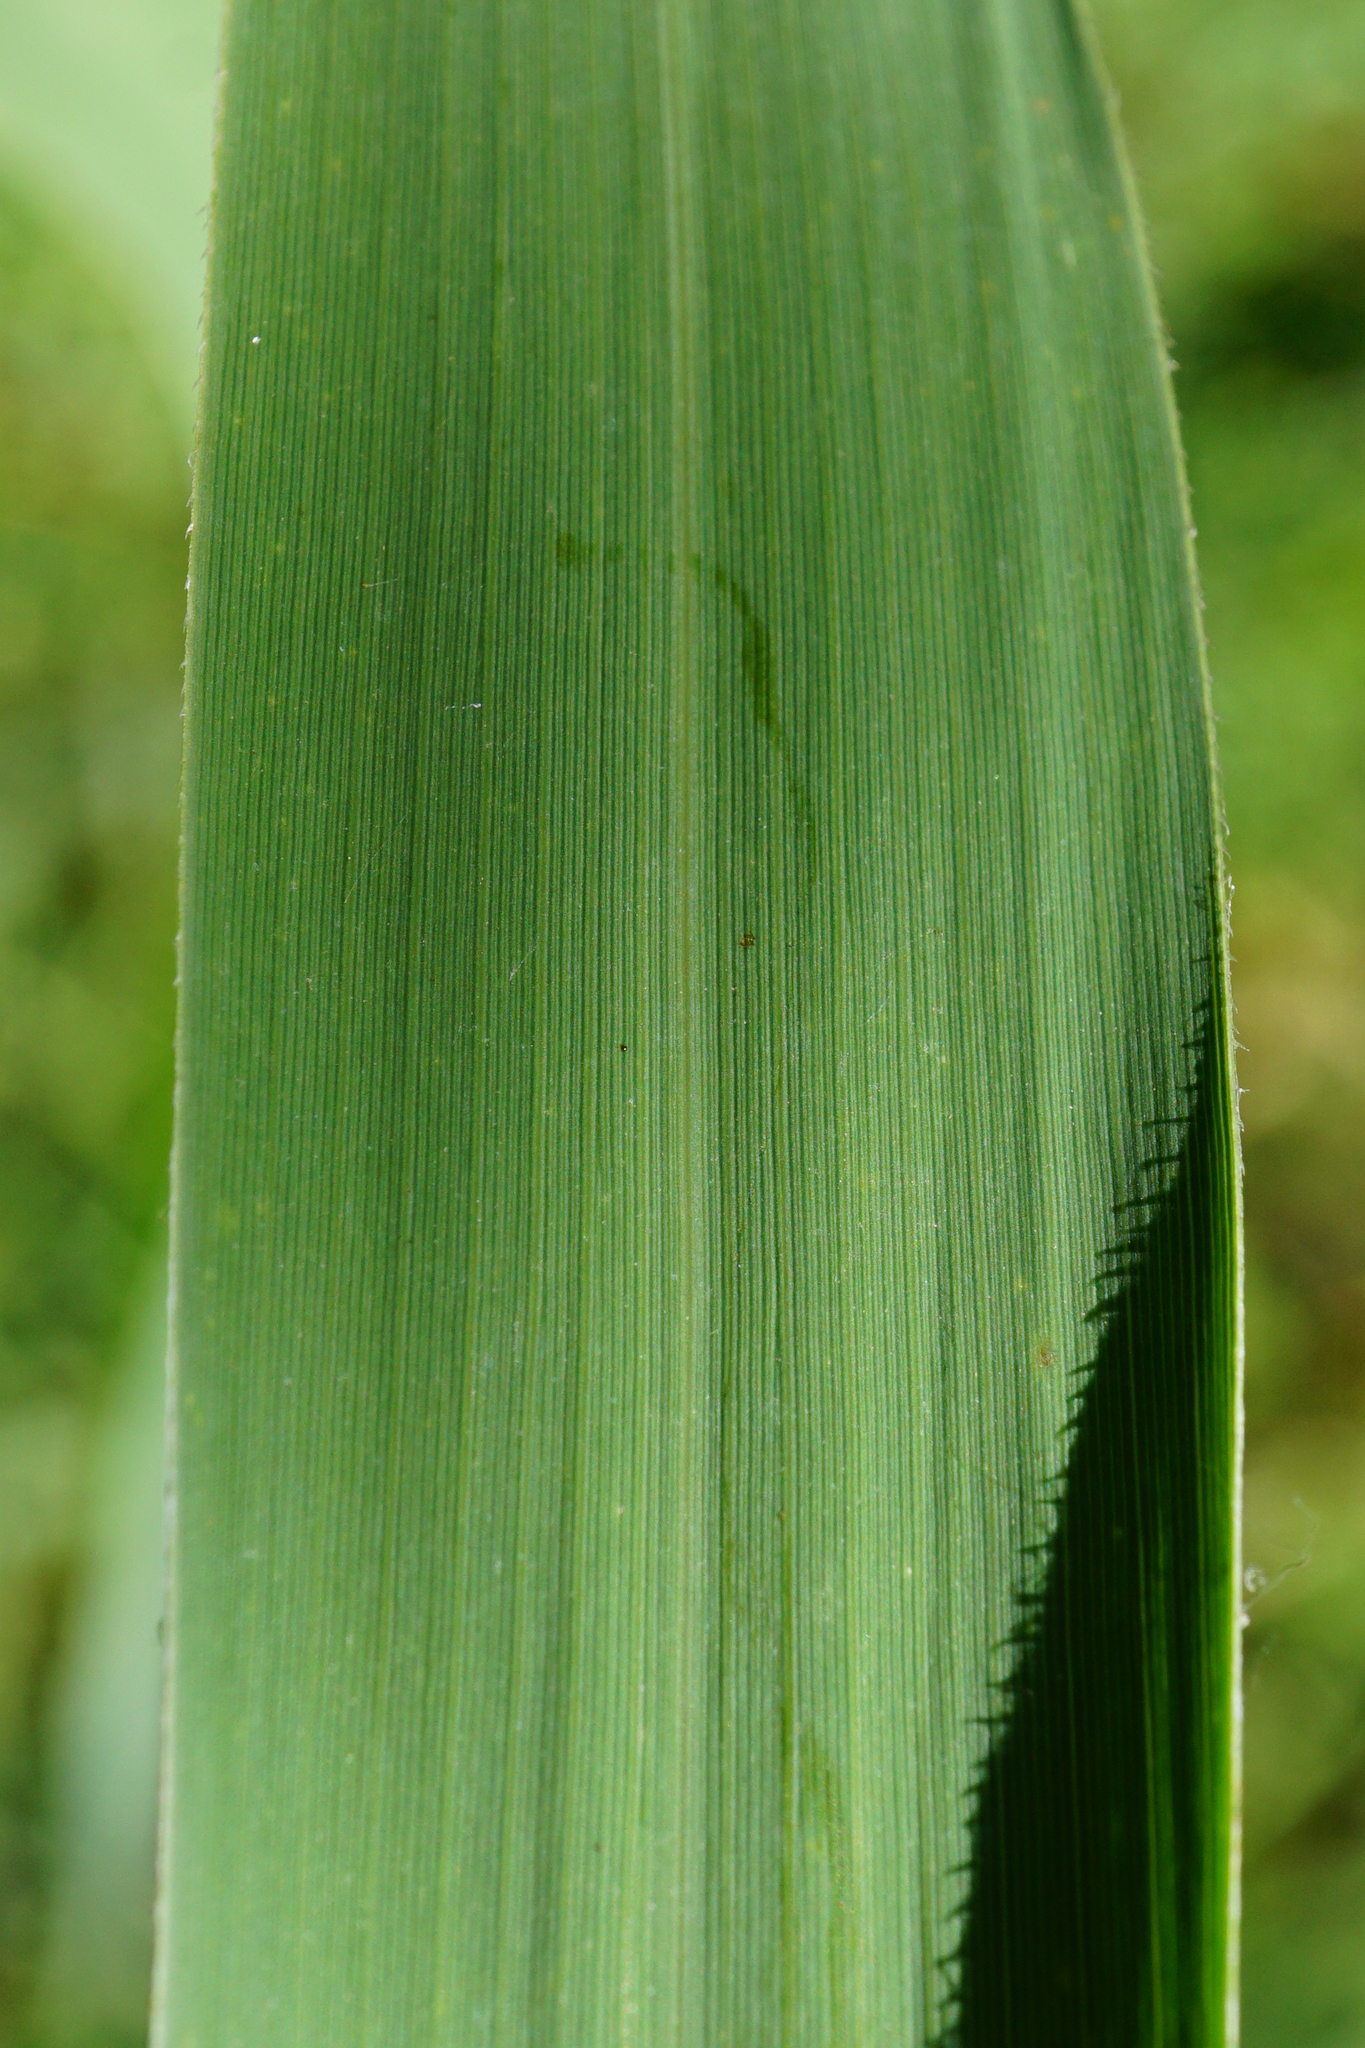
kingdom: Plantae
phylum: Tracheophyta
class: Liliopsida
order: Poales
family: Poaceae
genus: Phragmites
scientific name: Phragmites australis
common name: Common reed
